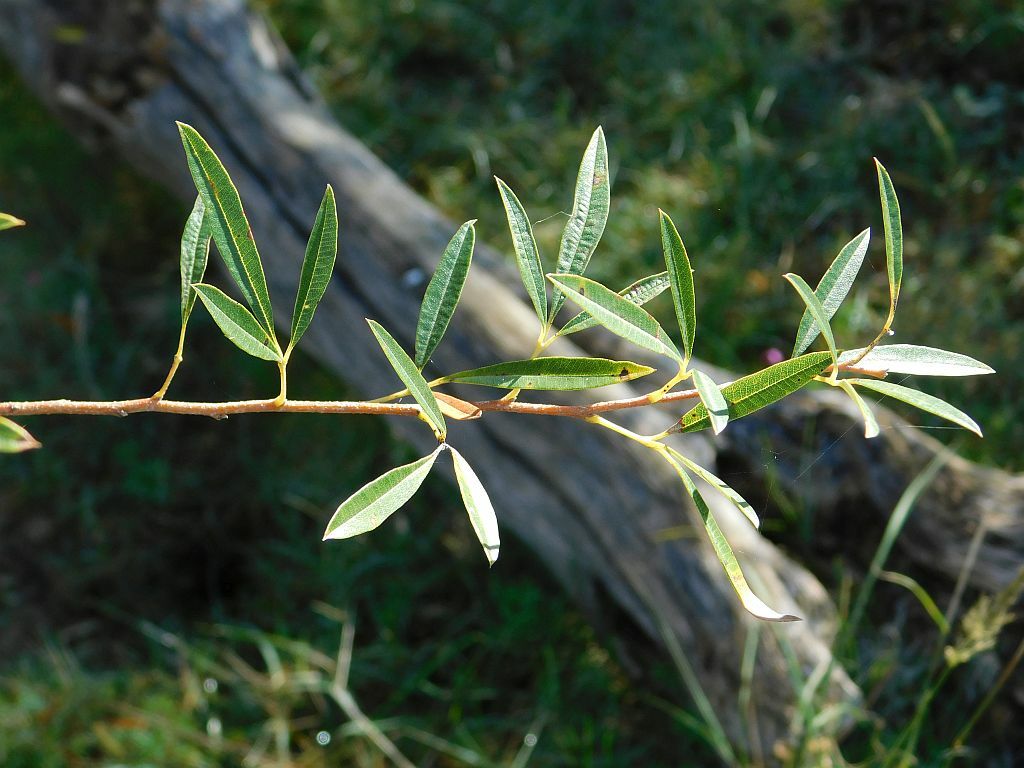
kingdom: Plantae
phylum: Tracheophyta
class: Magnoliopsida
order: Sapindales
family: Anacardiaceae
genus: Searsia
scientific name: Searsia angustifolia
